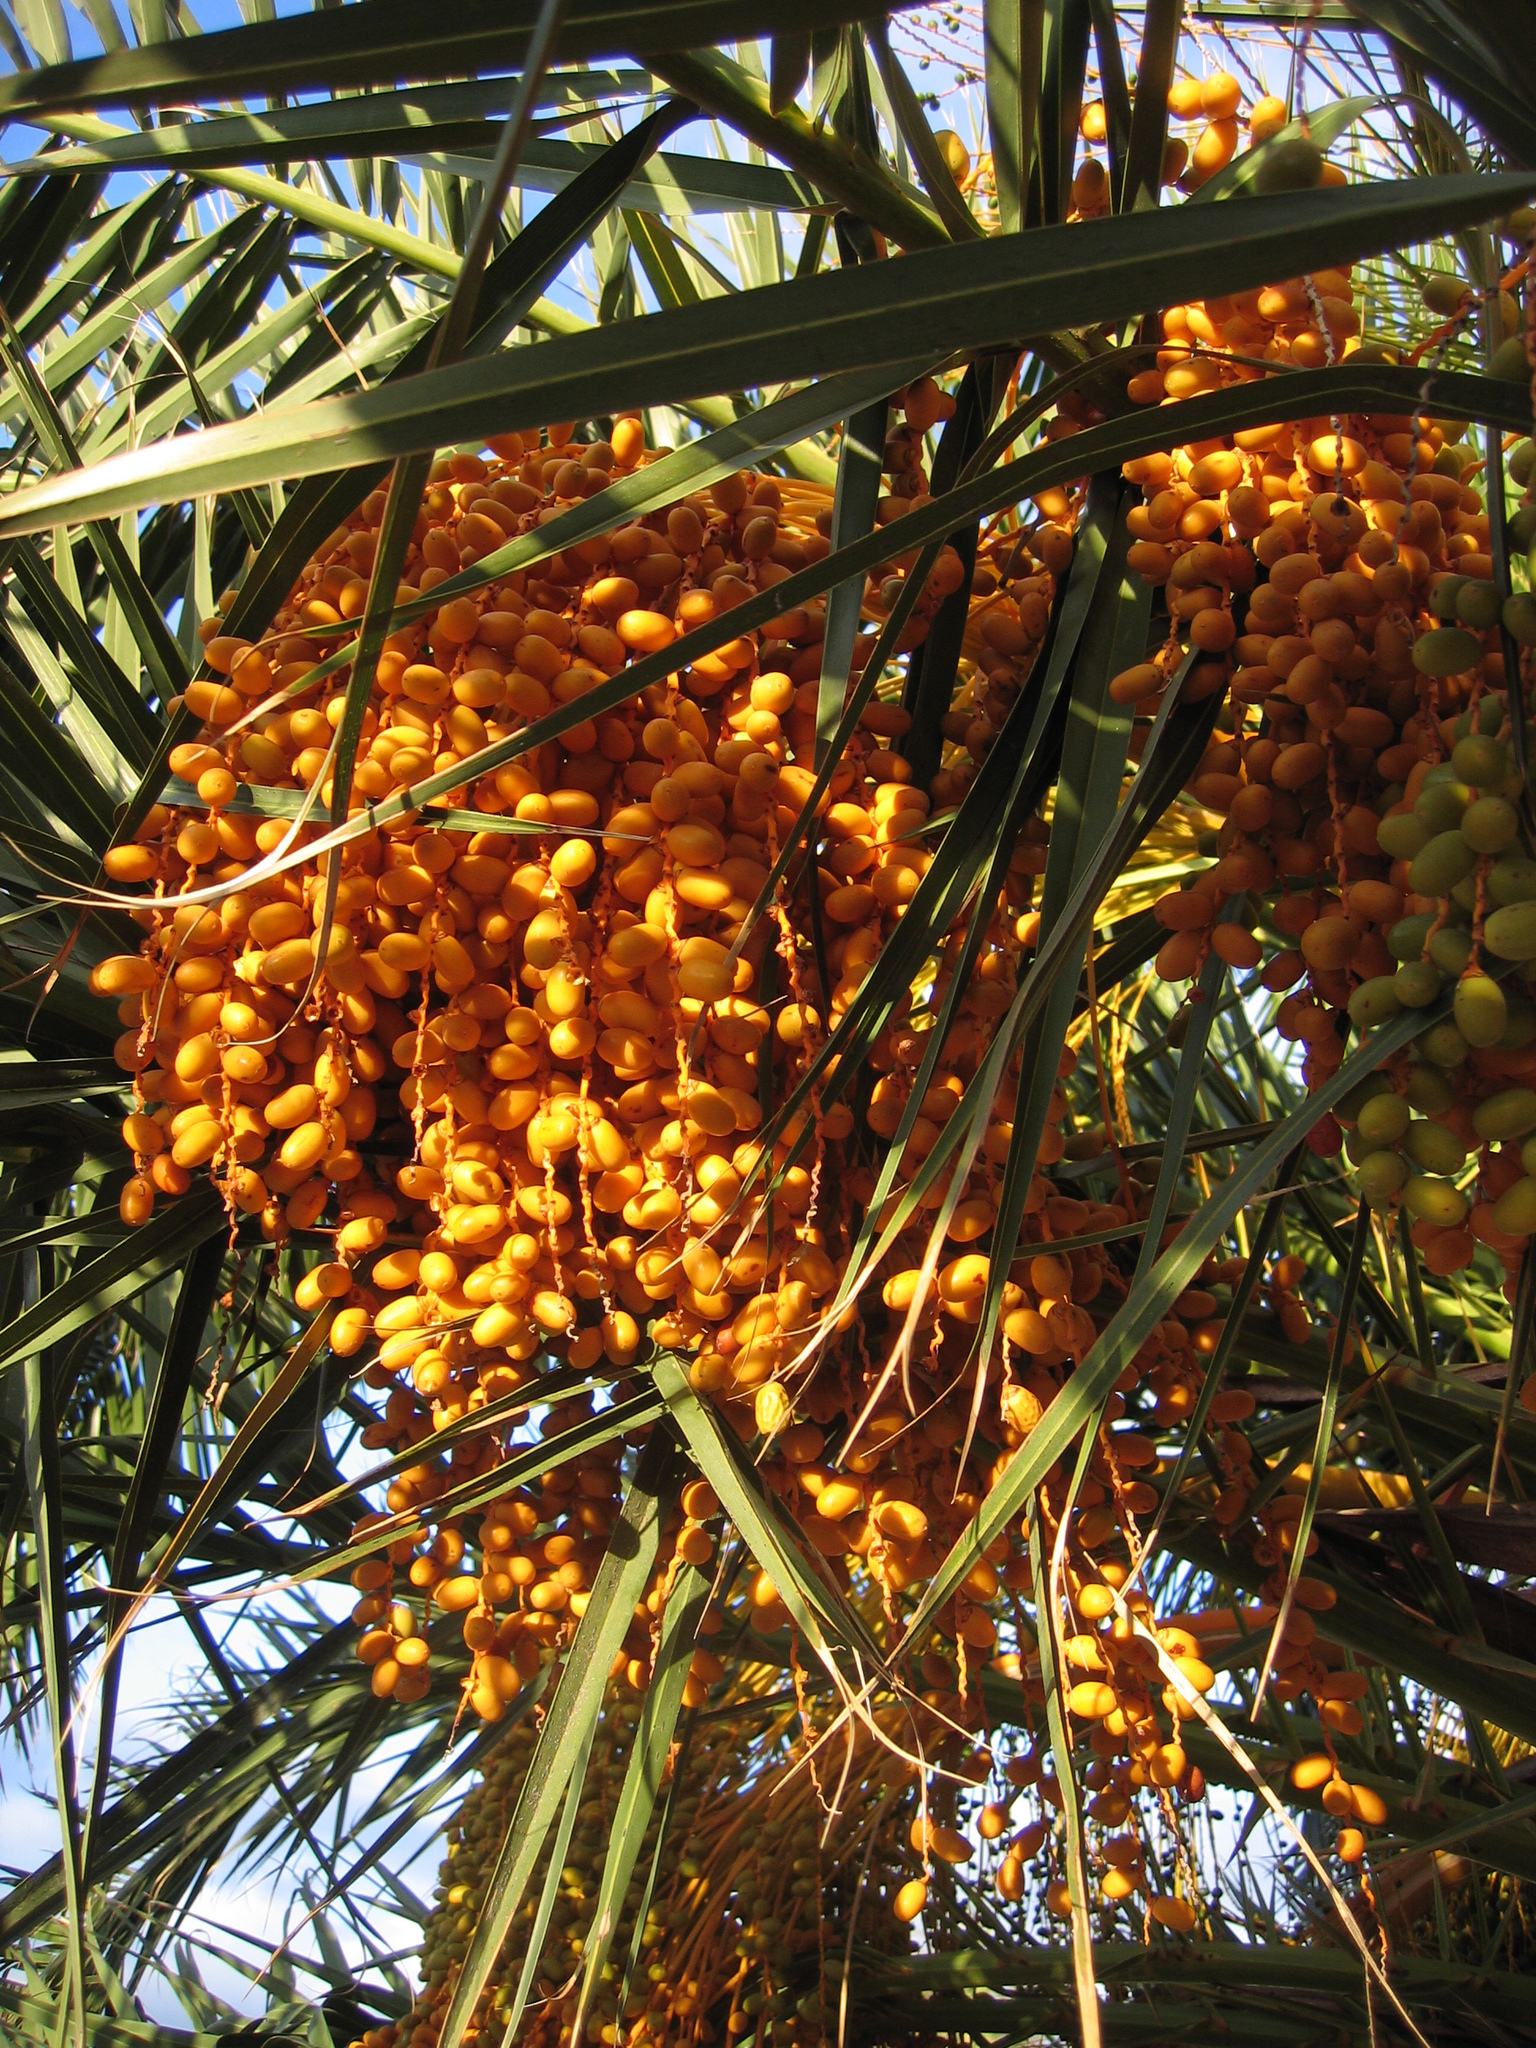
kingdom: Plantae
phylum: Tracheophyta
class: Liliopsida
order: Arecales
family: Arecaceae
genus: Phoenix
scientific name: Phoenix canariensis
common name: Canary island date palm
